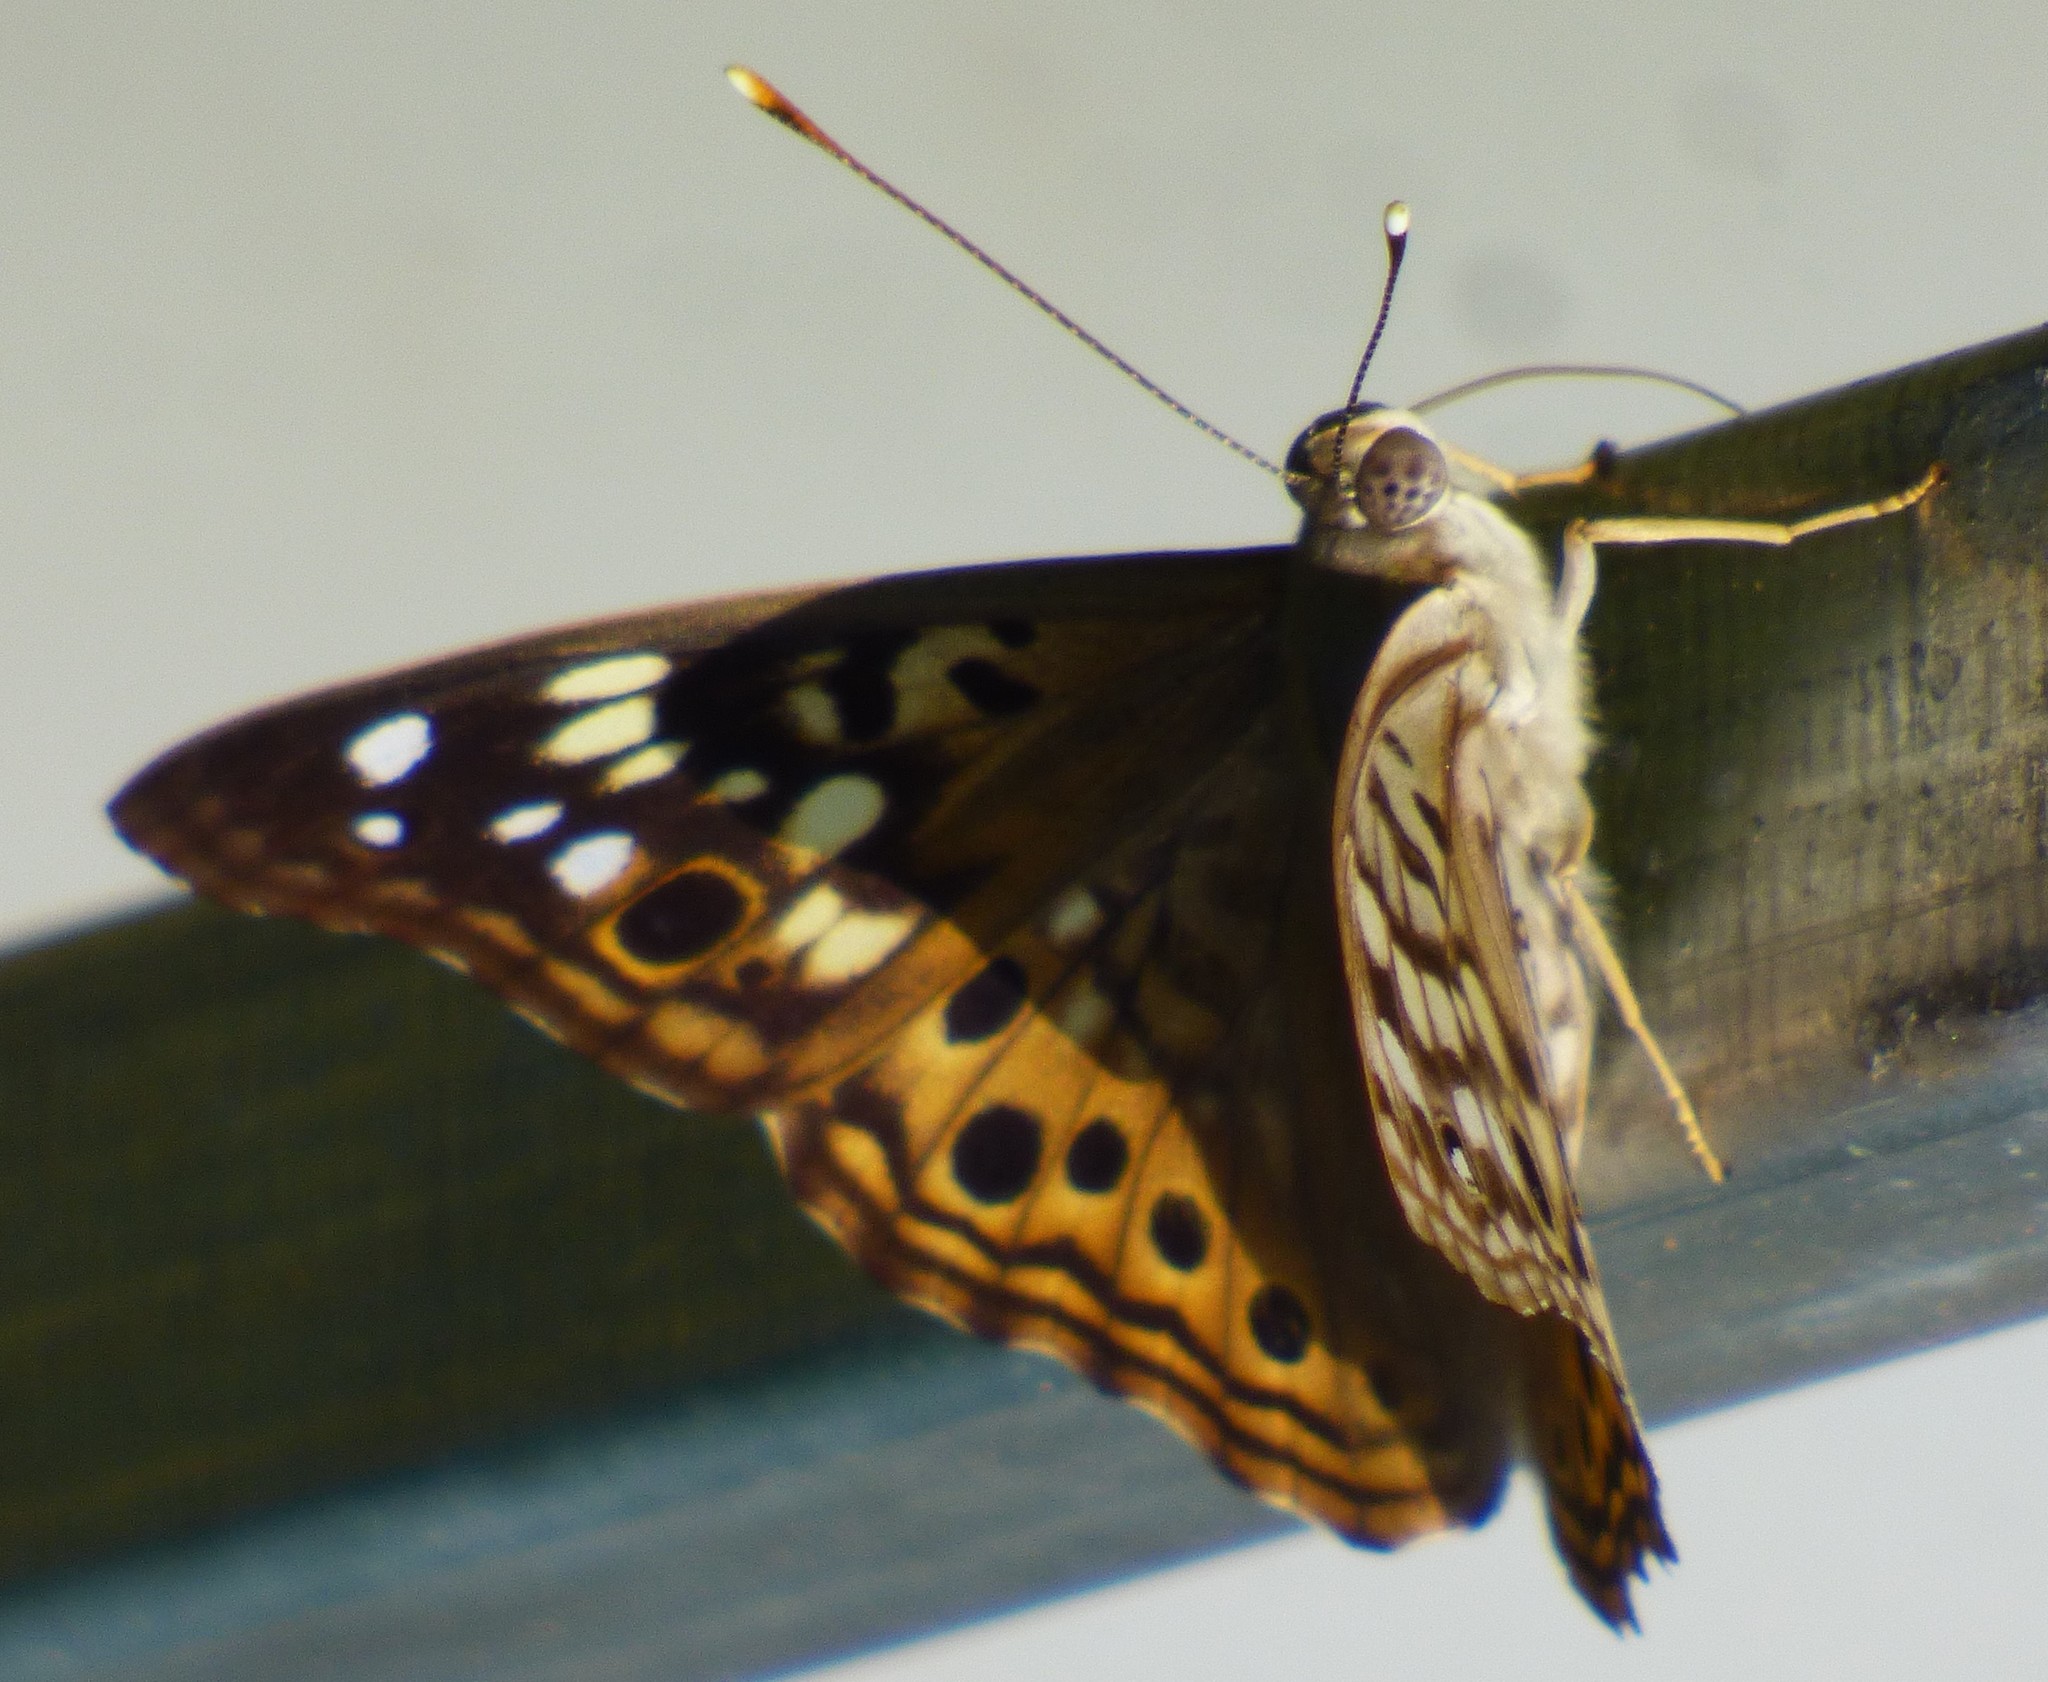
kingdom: Animalia
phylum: Arthropoda
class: Insecta
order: Lepidoptera
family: Nymphalidae
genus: Asterocampa
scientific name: Asterocampa celtis
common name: Hackberry emperor
